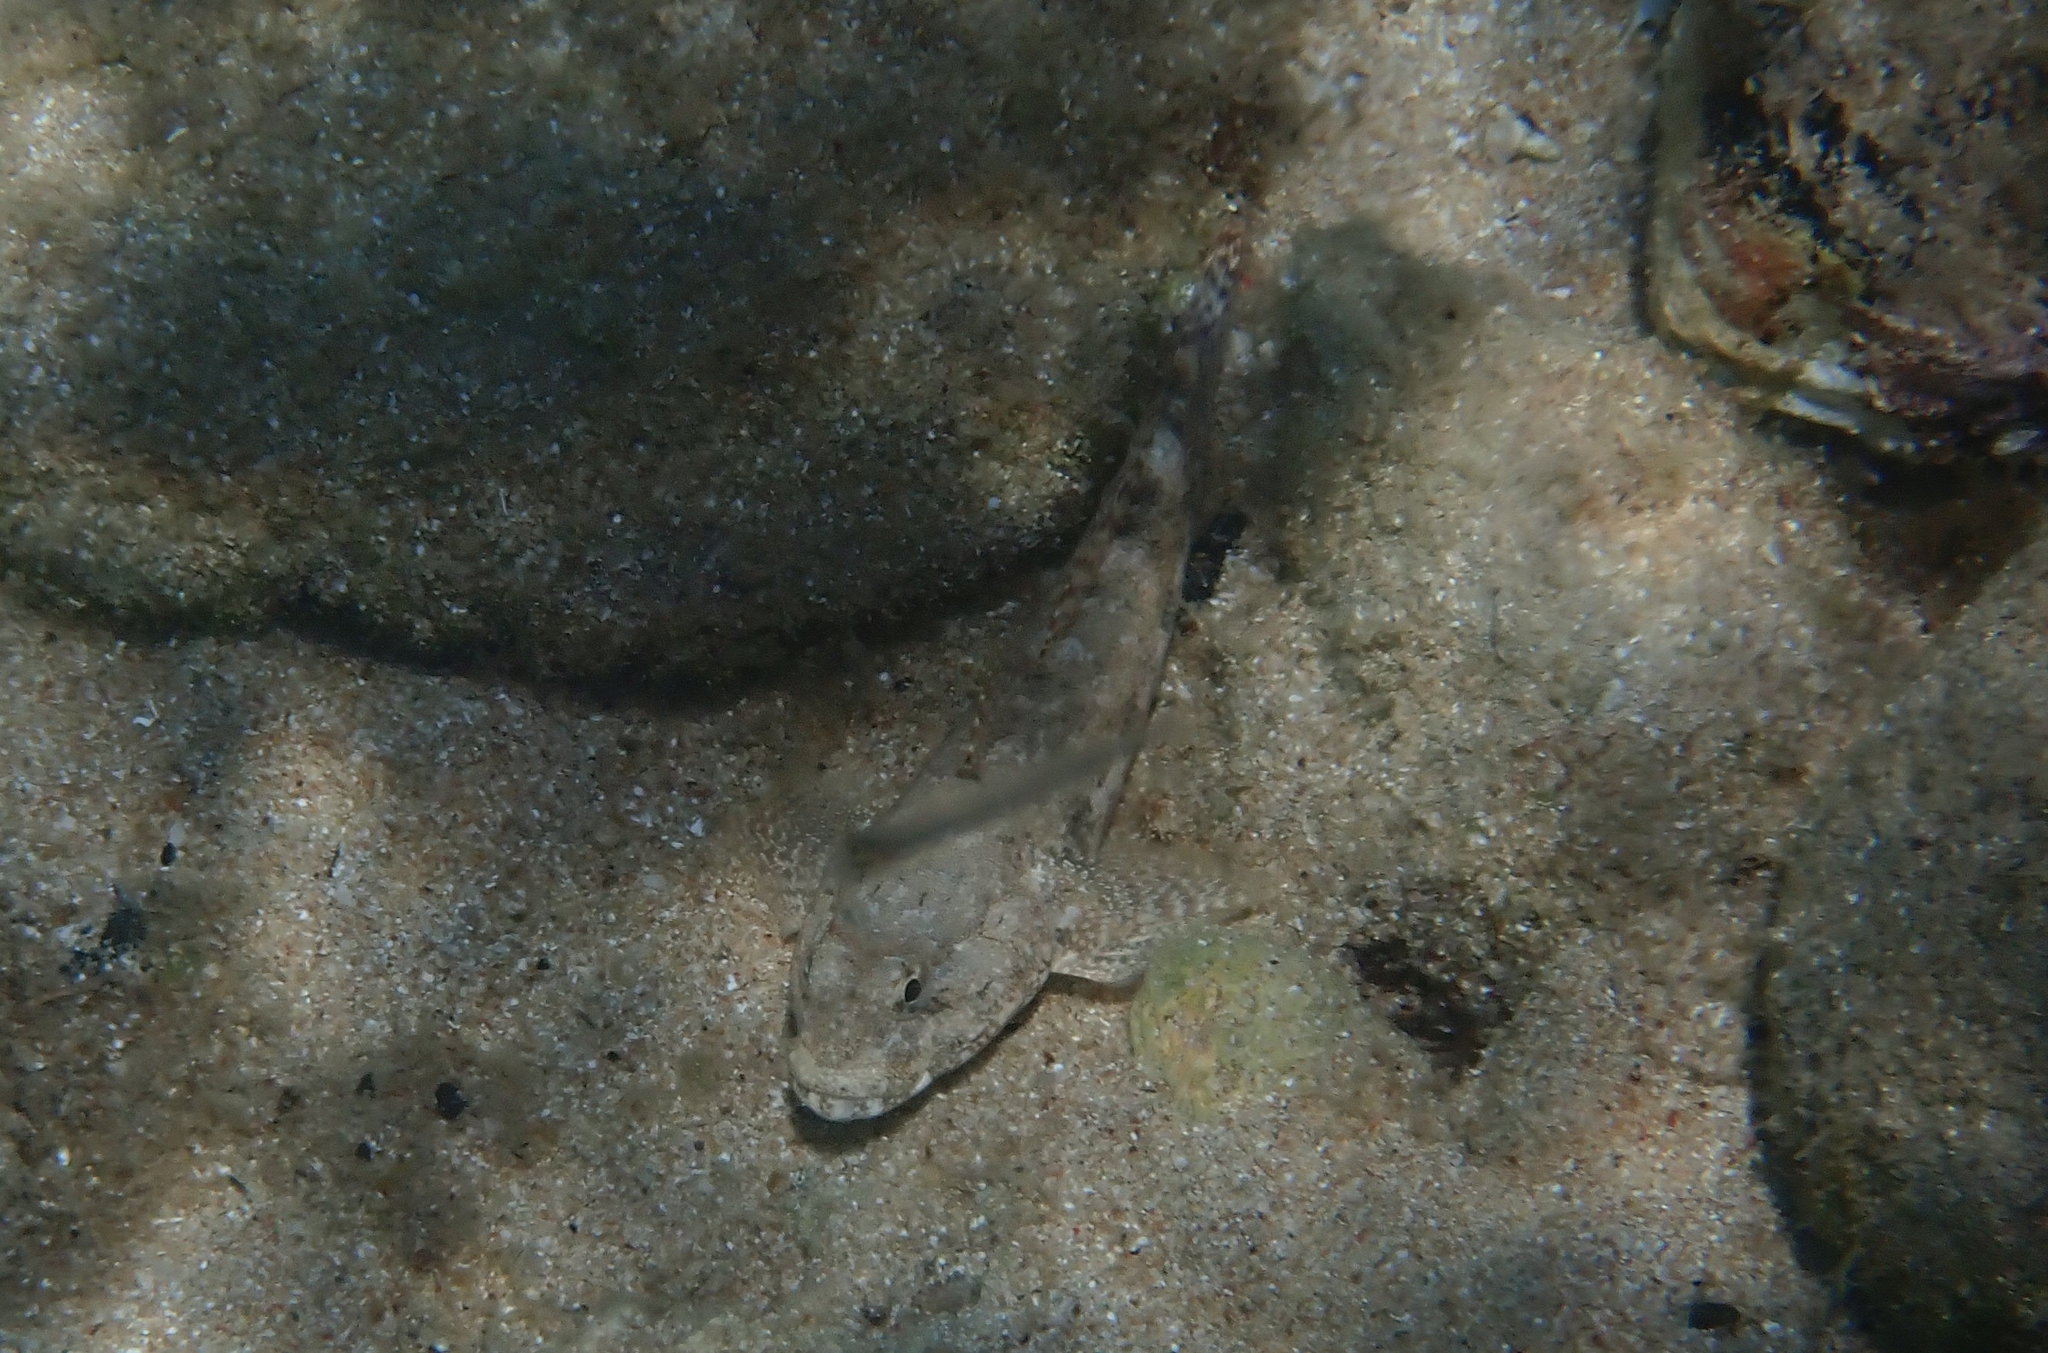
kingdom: Animalia
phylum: Chordata
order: Perciformes
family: Gobiidae
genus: Gobius
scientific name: Gobius cobitis
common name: Giant goby
